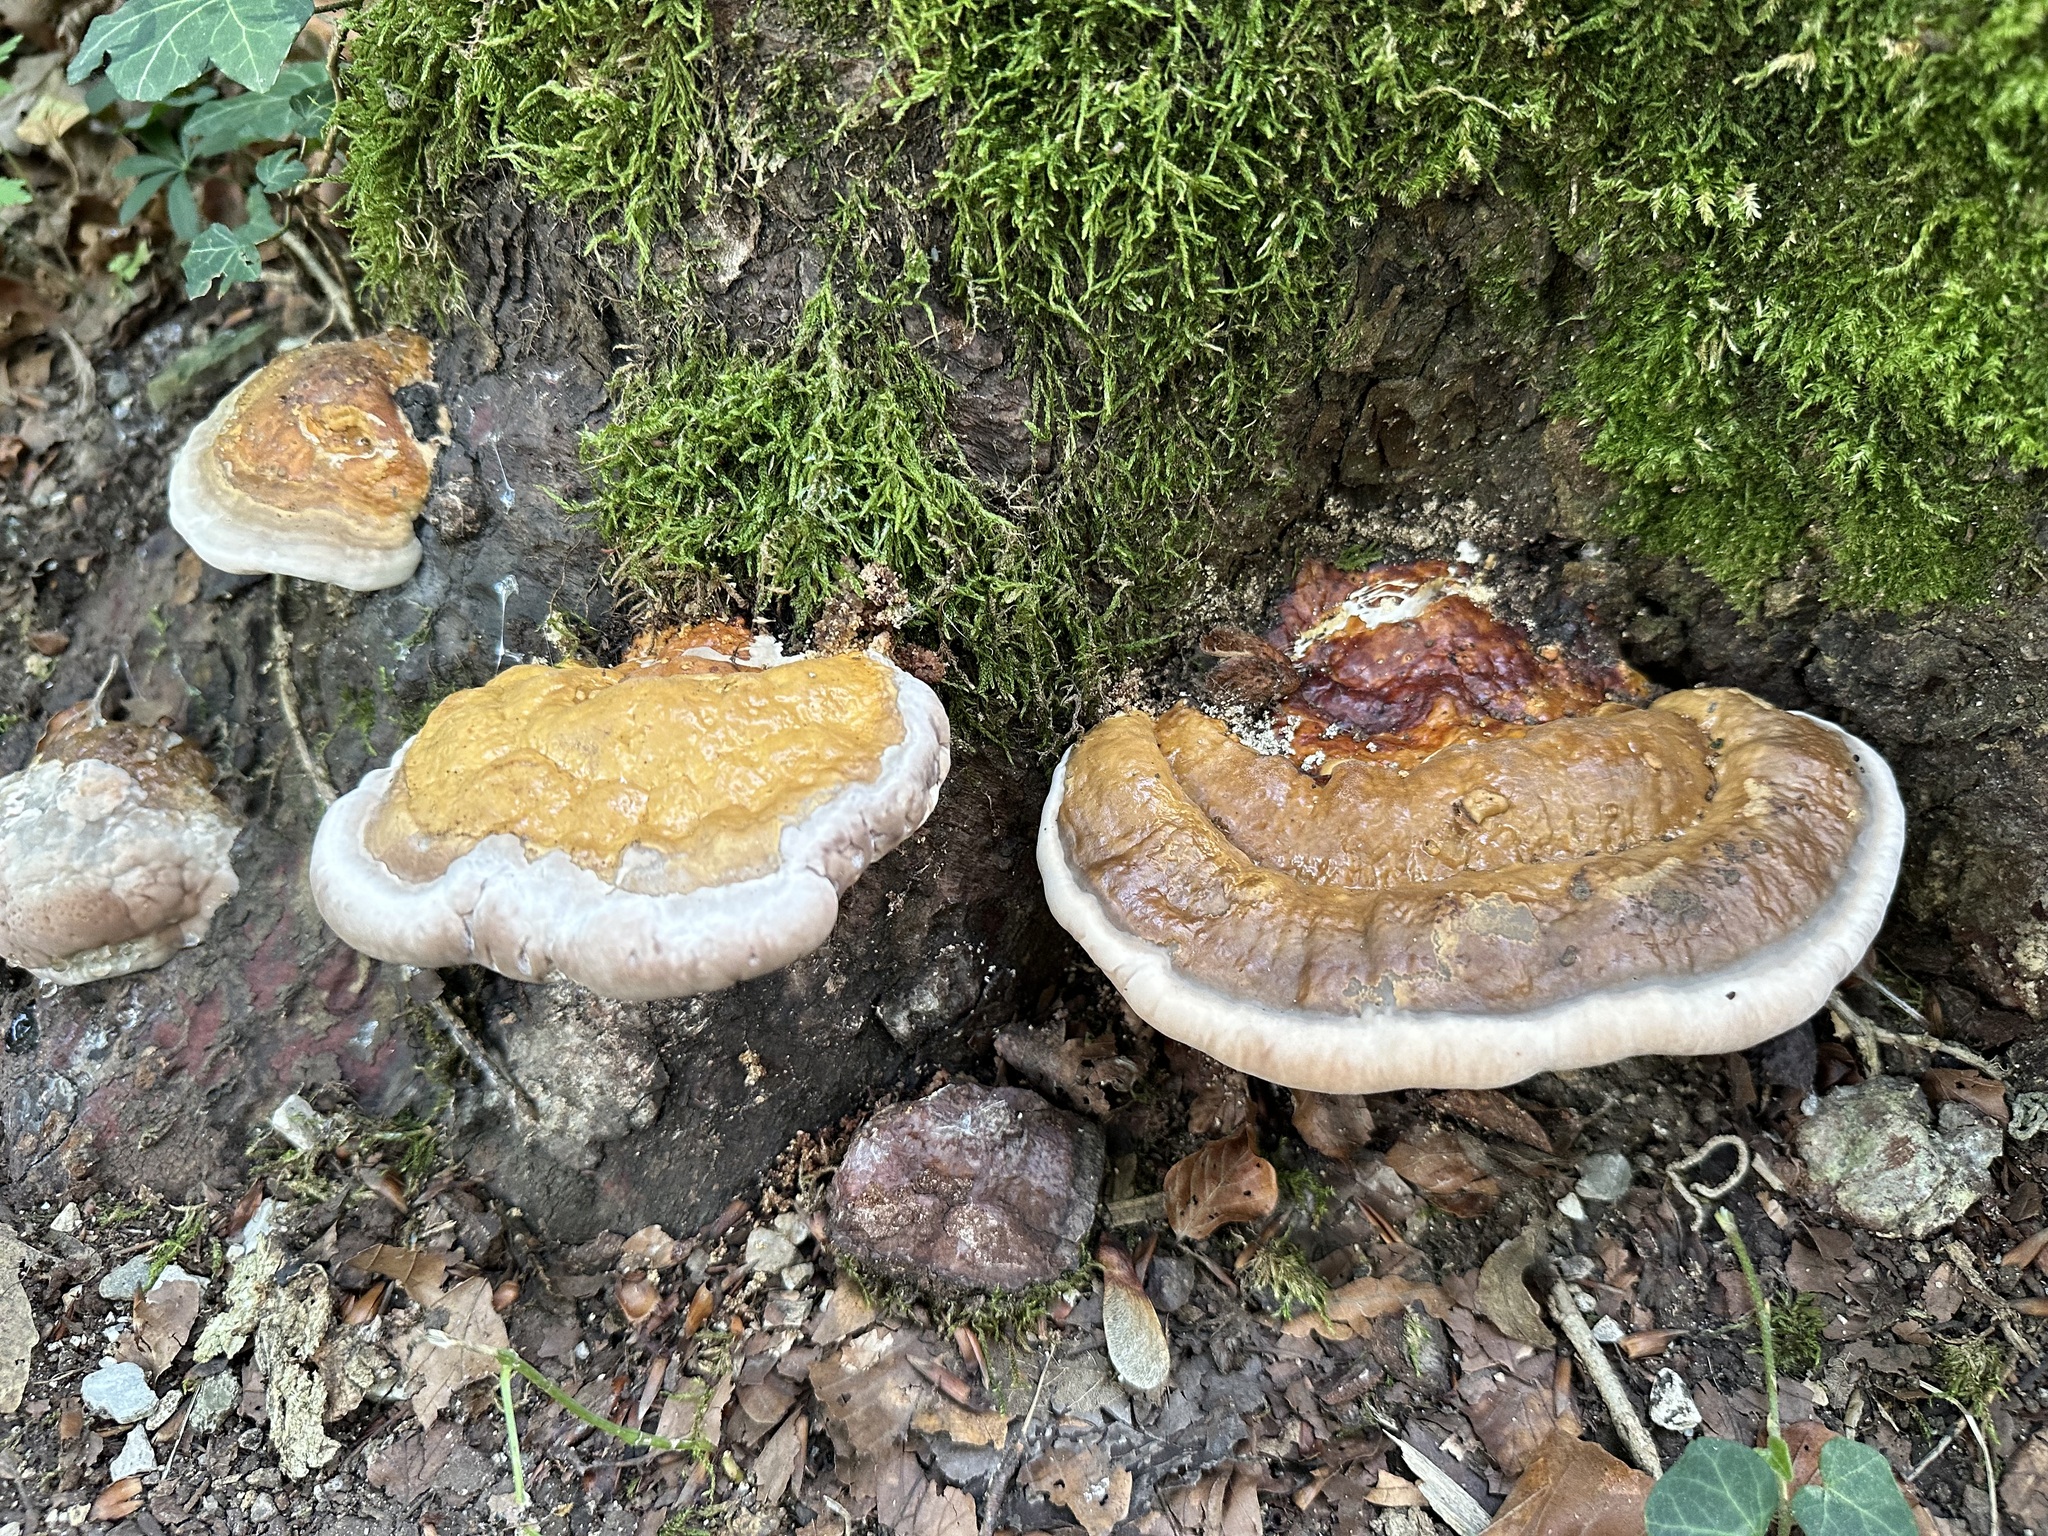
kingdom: Fungi
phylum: Basidiomycota
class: Agaricomycetes
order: Polyporales
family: Fomitopsidaceae
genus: Fomitopsis
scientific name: Fomitopsis pinicola
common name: Red-belted bracket
